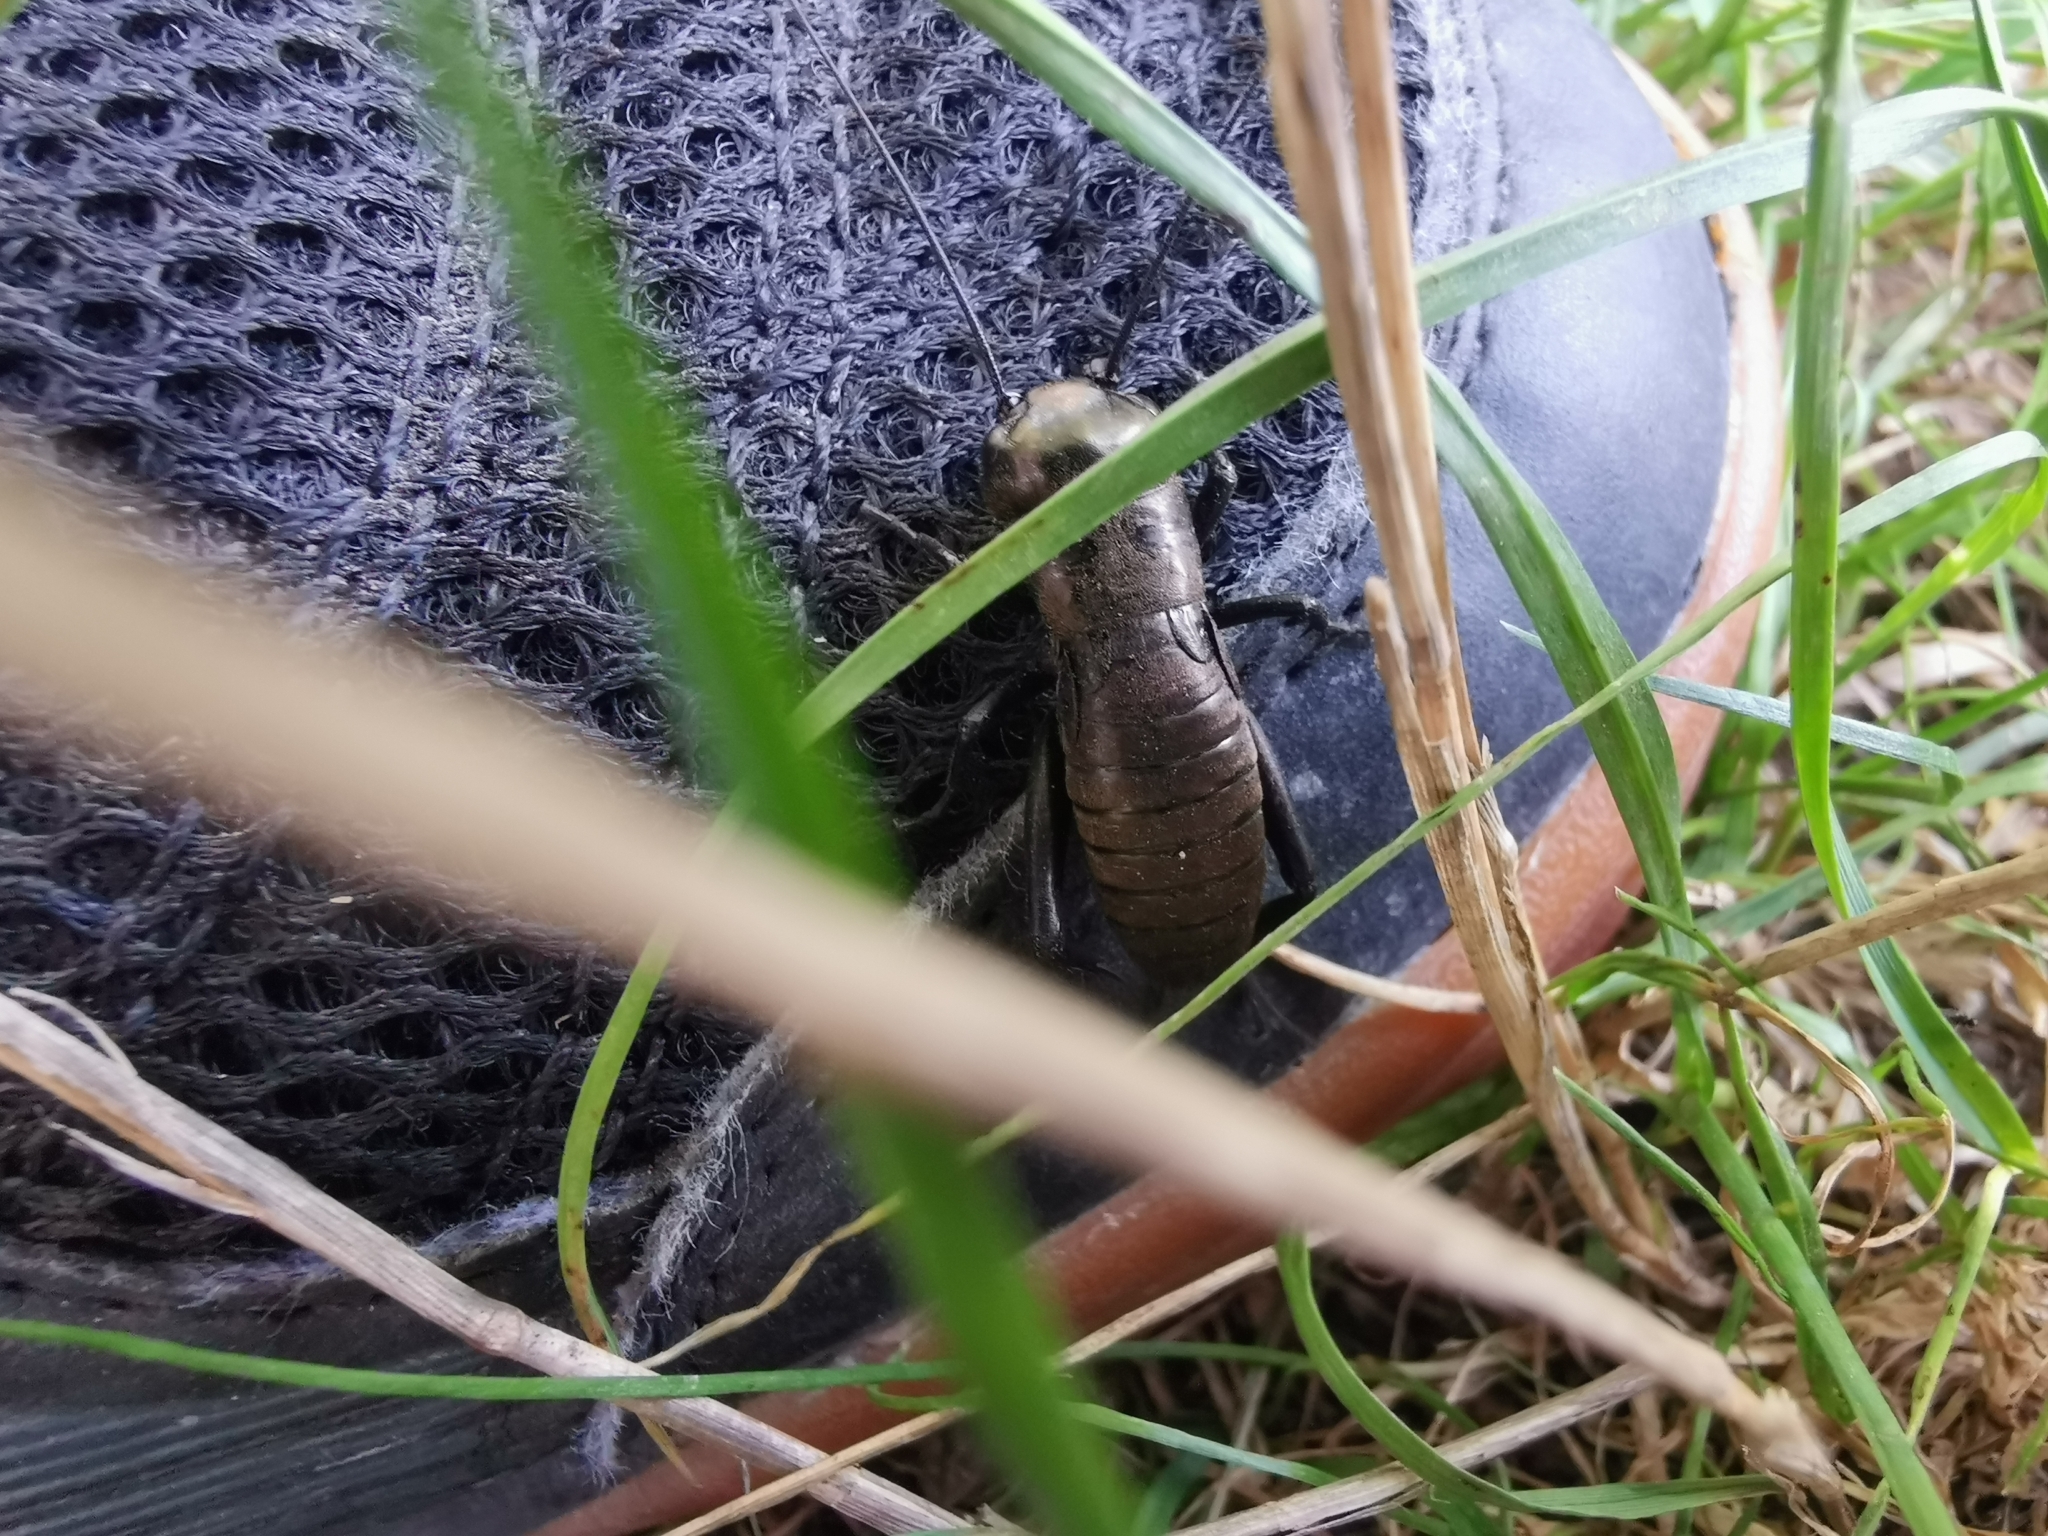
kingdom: Animalia
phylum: Arthropoda
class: Insecta
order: Orthoptera
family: Gryllidae
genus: Gryllus
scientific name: Gryllus campestris
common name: Field cricket
